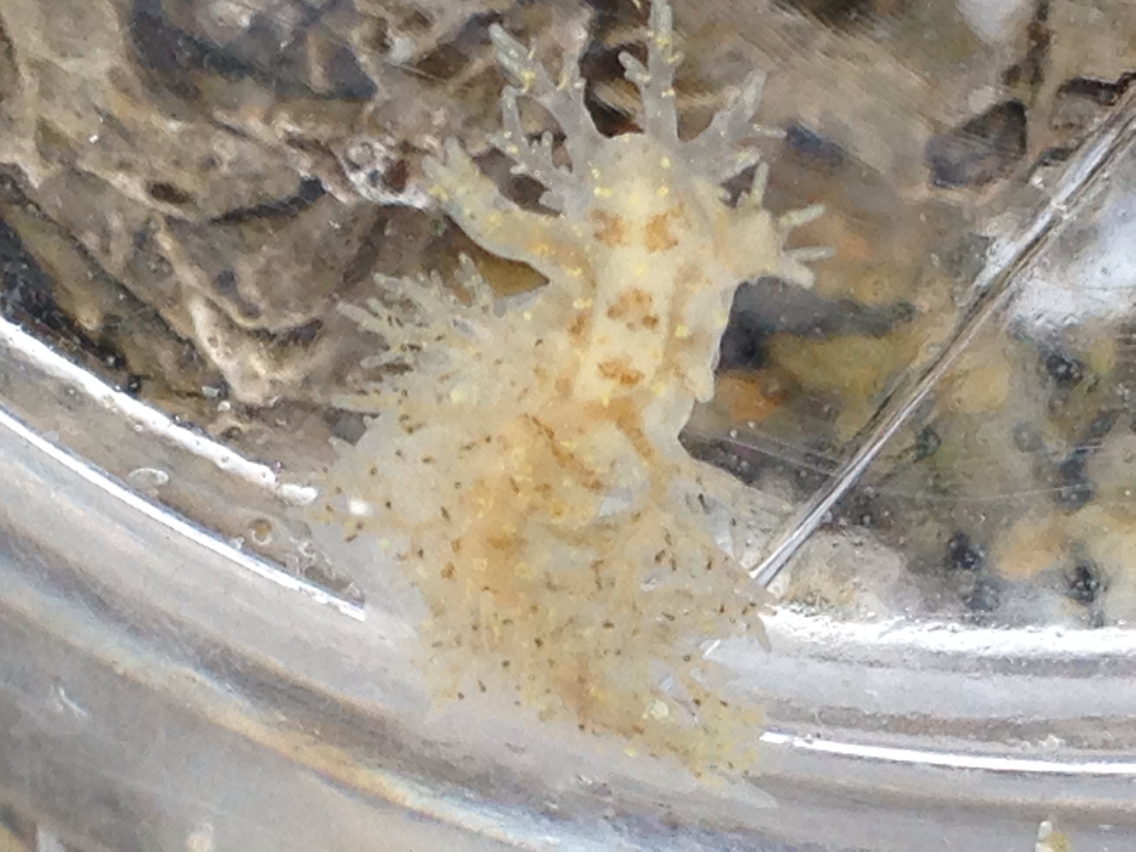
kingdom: Animalia
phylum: Mollusca
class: Gastropoda
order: Nudibranchia
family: Dendronotidae
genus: Dendronotus
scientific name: Dendronotus venustus
